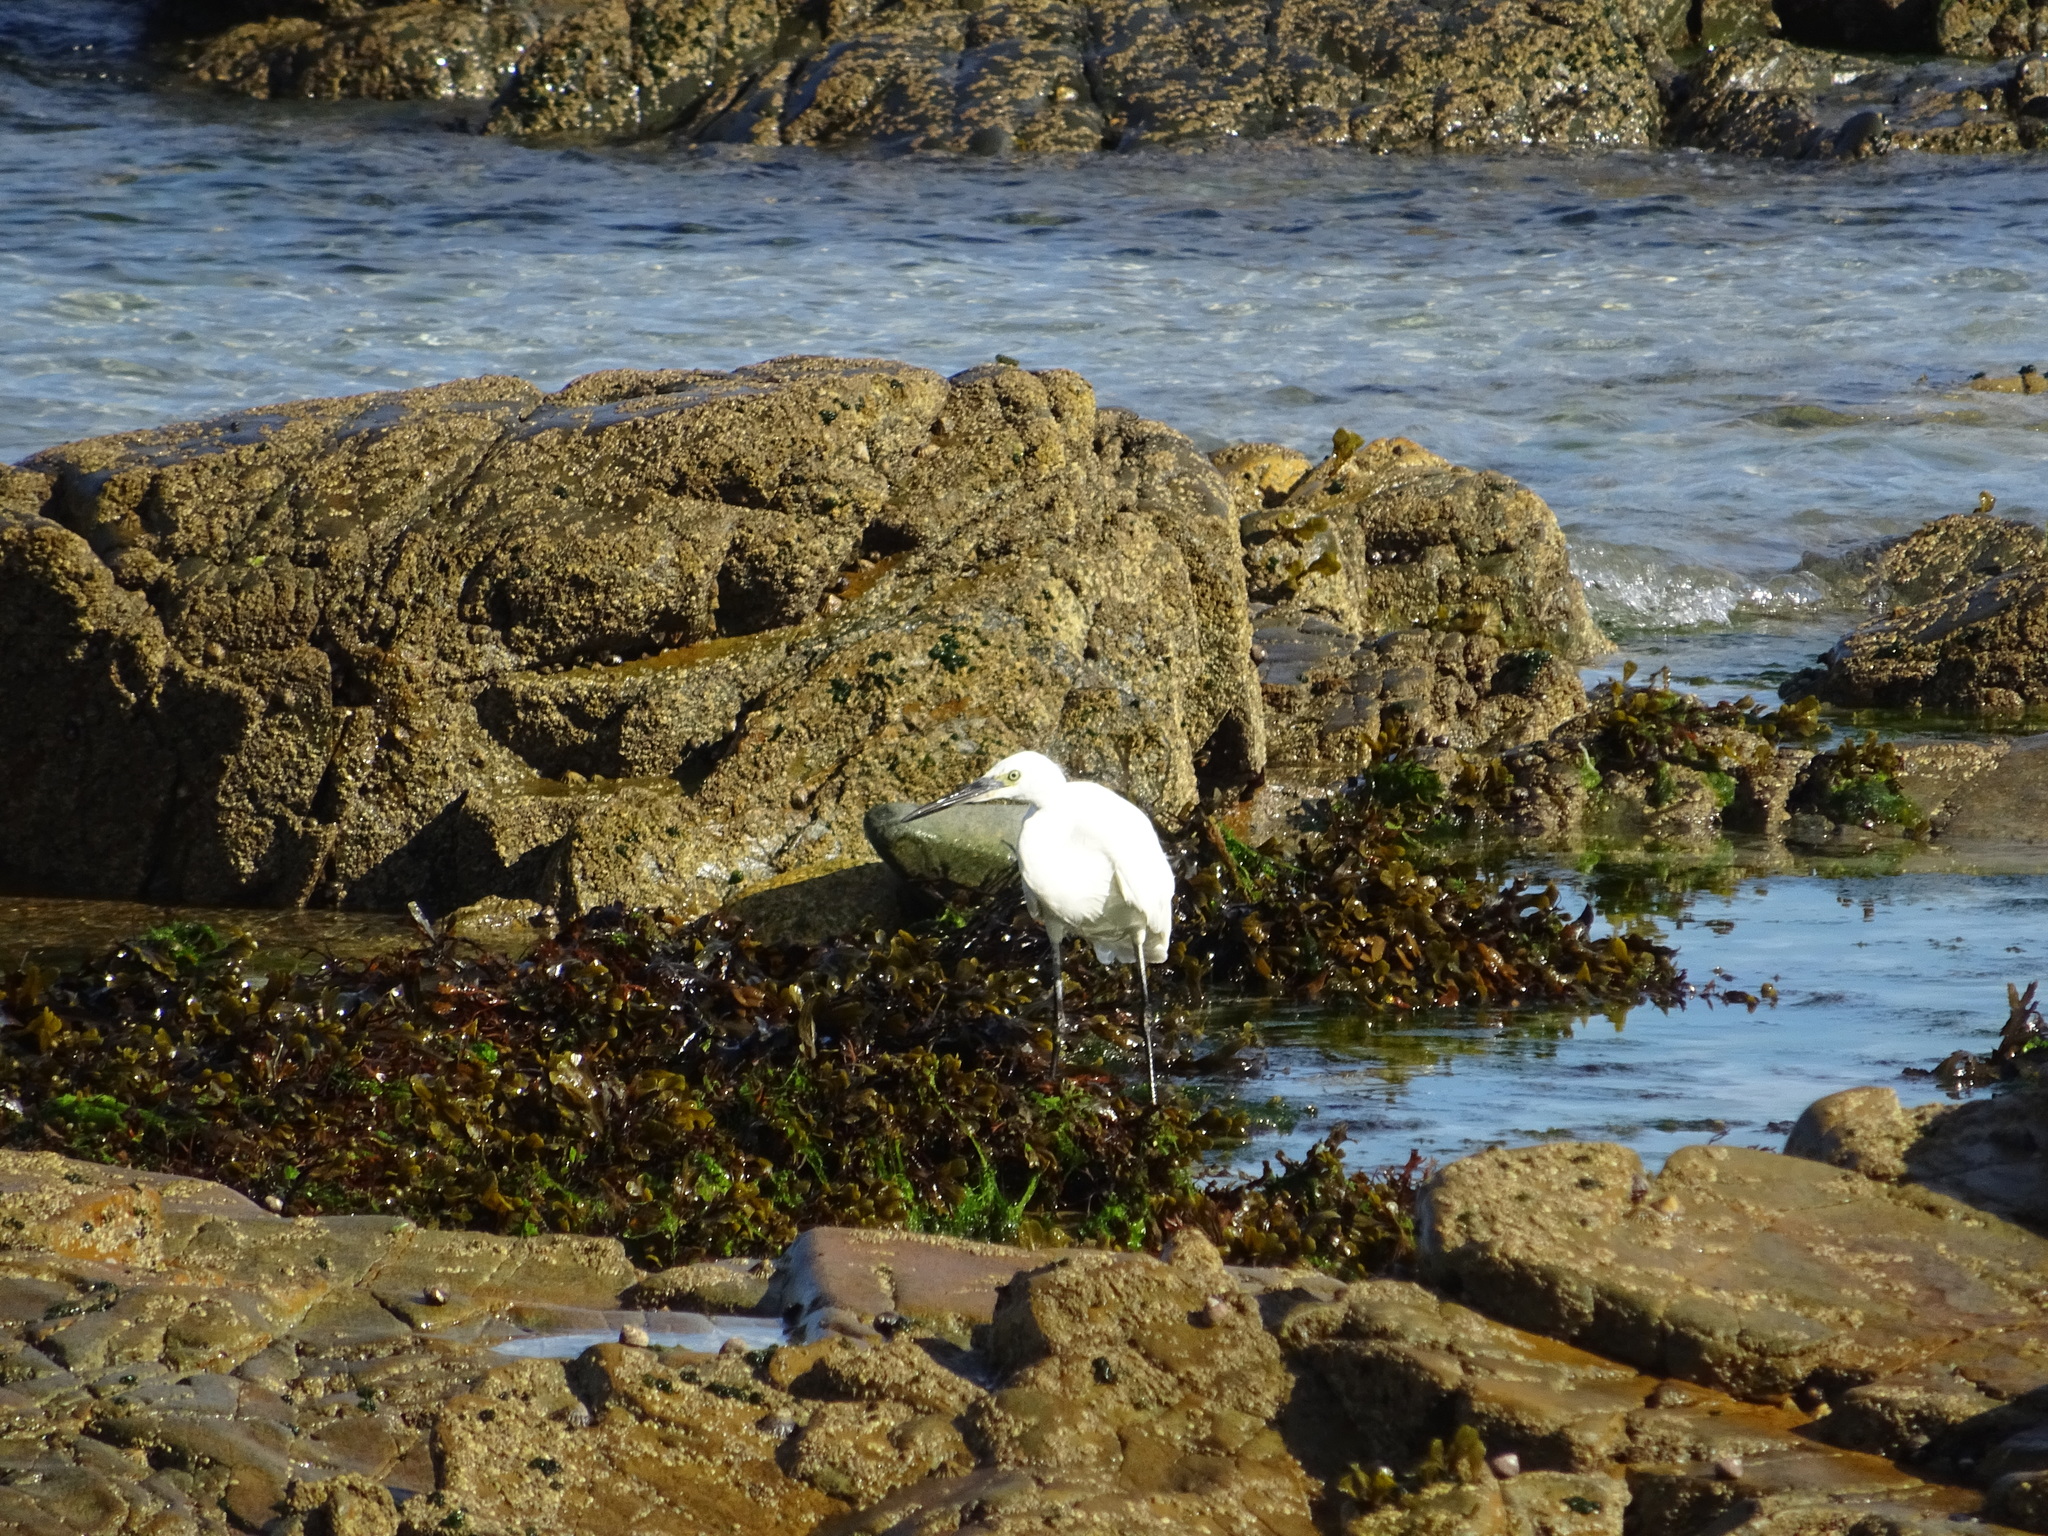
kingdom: Animalia
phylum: Chordata
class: Aves
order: Pelecaniformes
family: Ardeidae
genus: Egretta
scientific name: Egretta garzetta
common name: Little egret
